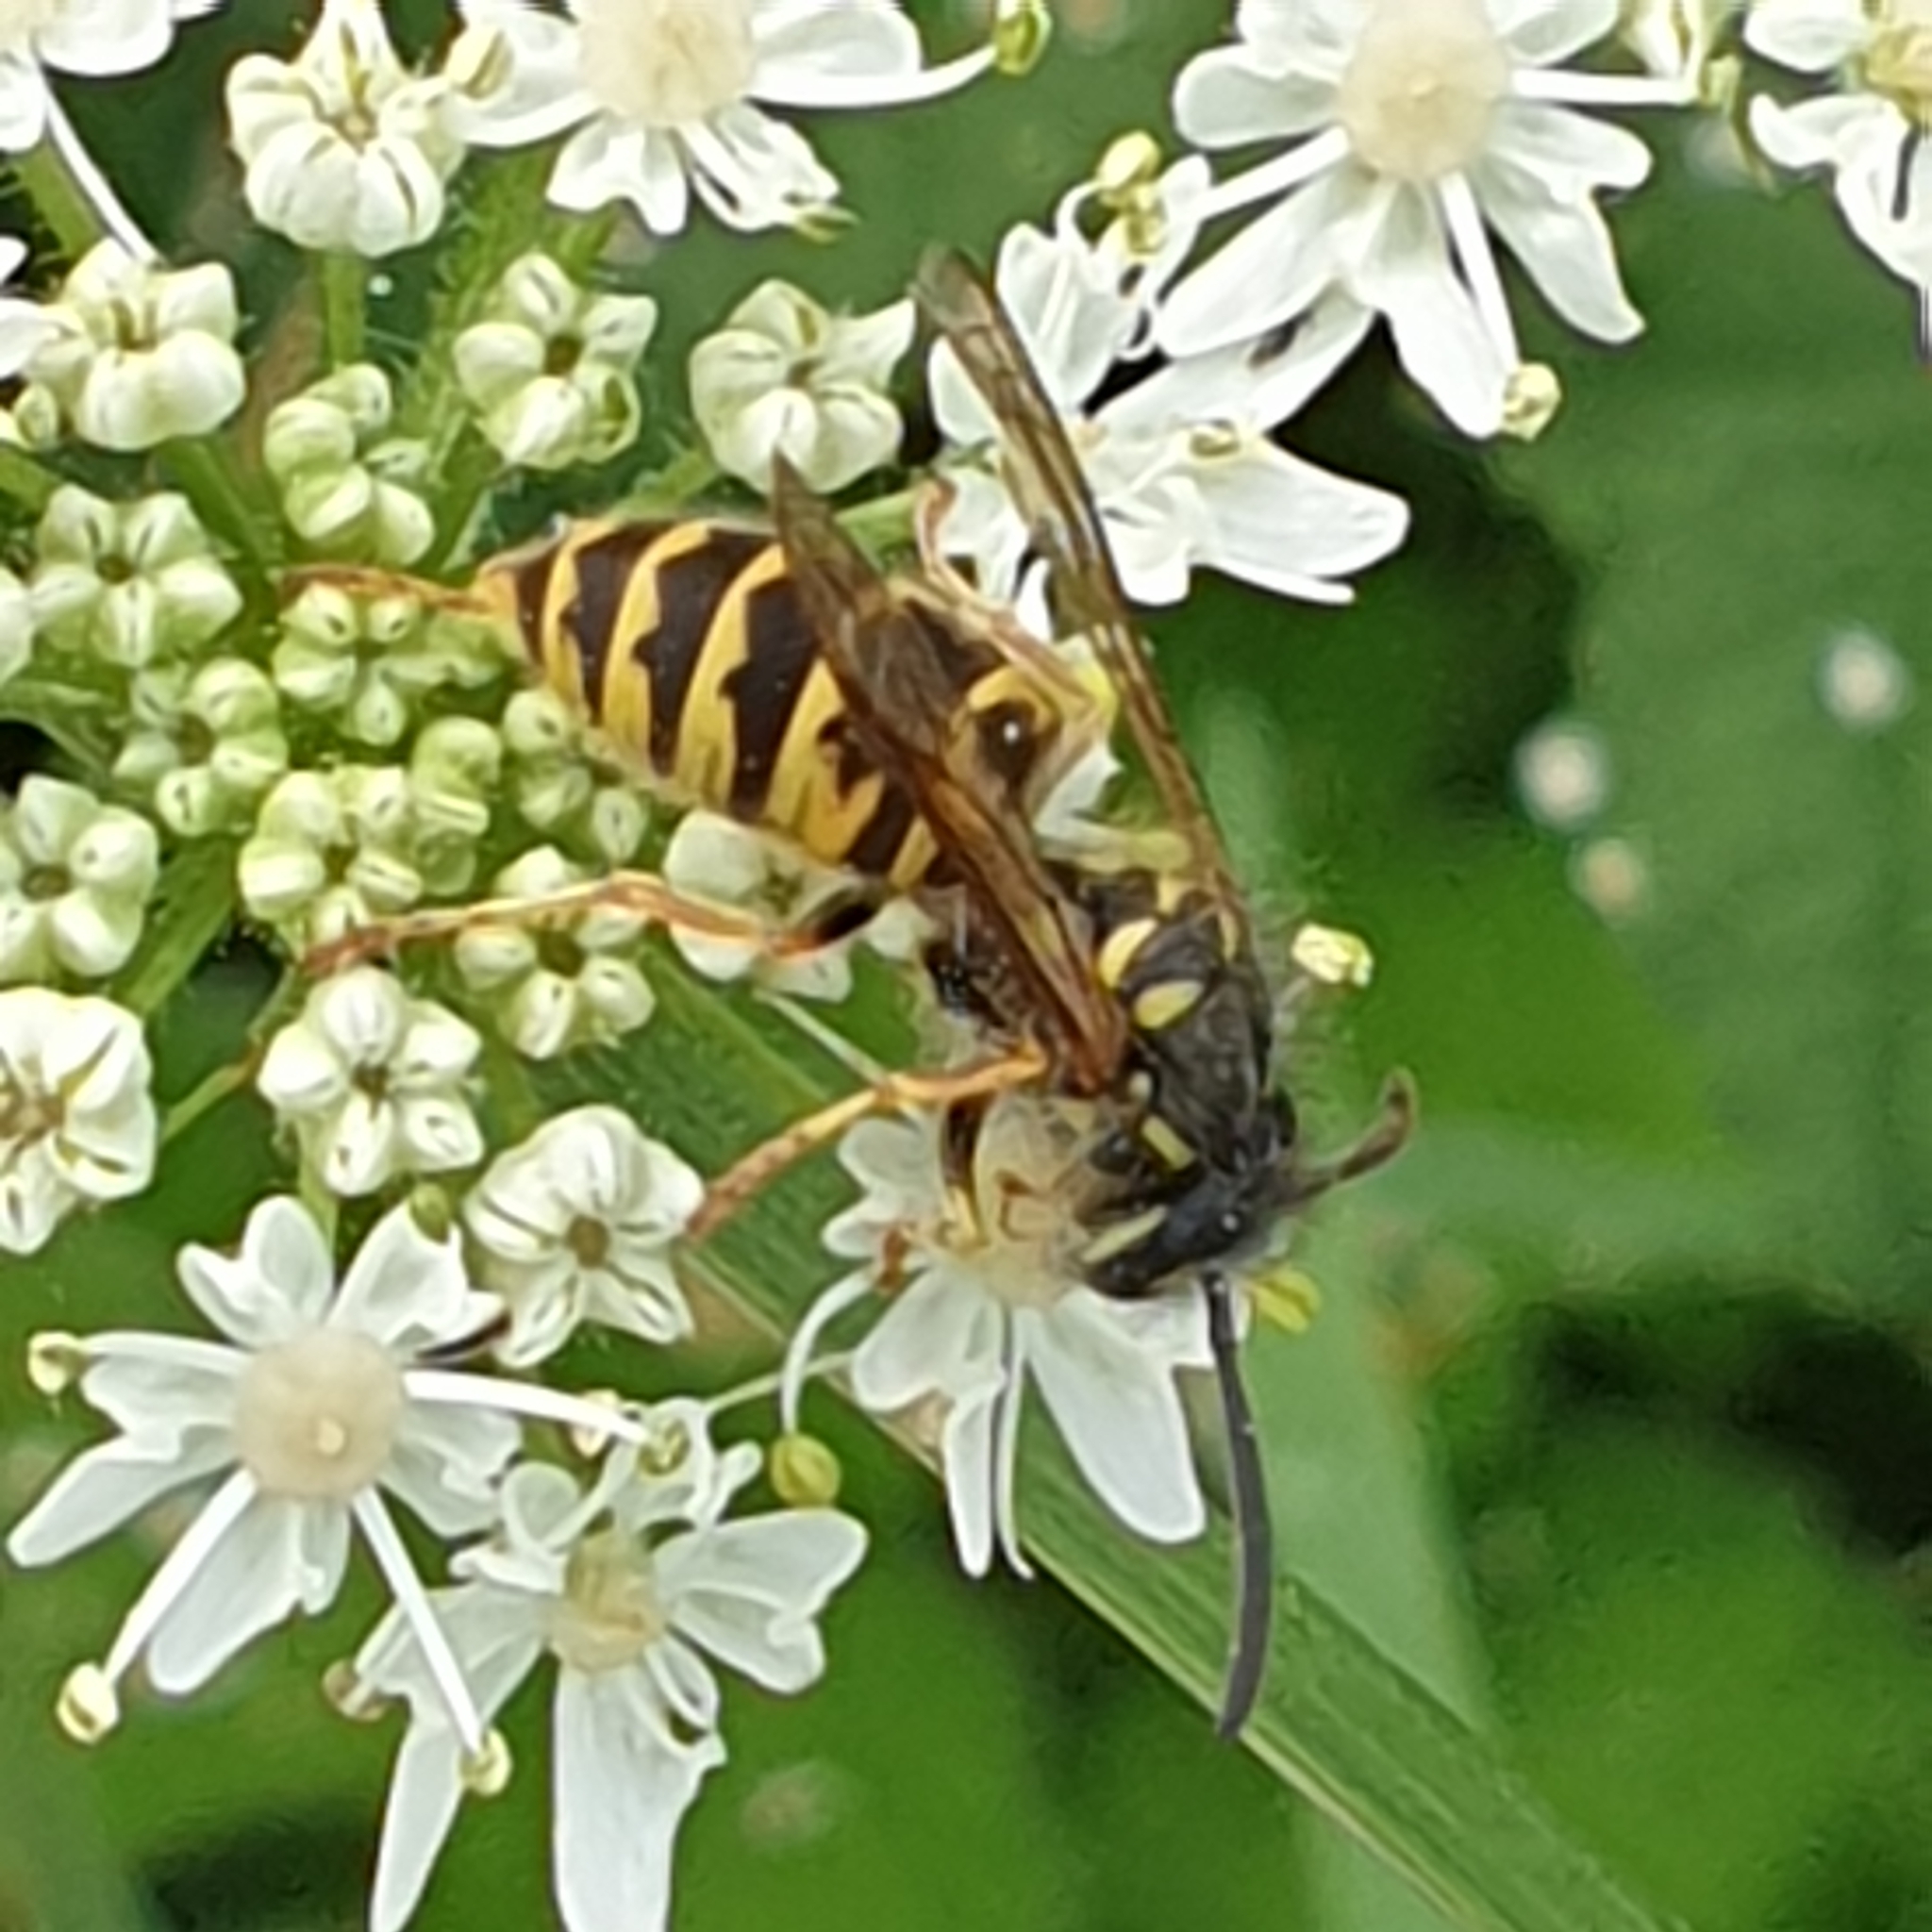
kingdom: Animalia
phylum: Arthropoda
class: Insecta
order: Hymenoptera
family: Vespidae
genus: Vespula
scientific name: Vespula vulgaris
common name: Common wasp
